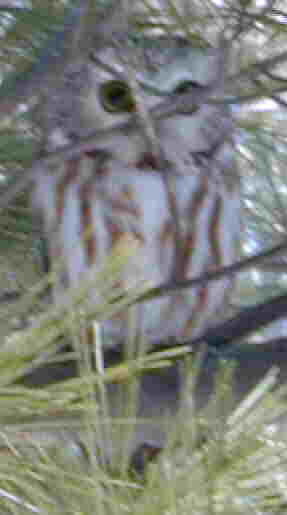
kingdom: Animalia
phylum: Chordata
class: Aves
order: Strigiformes
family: Strigidae
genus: Aegolius
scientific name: Aegolius acadicus
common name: Northern saw-whet owl
